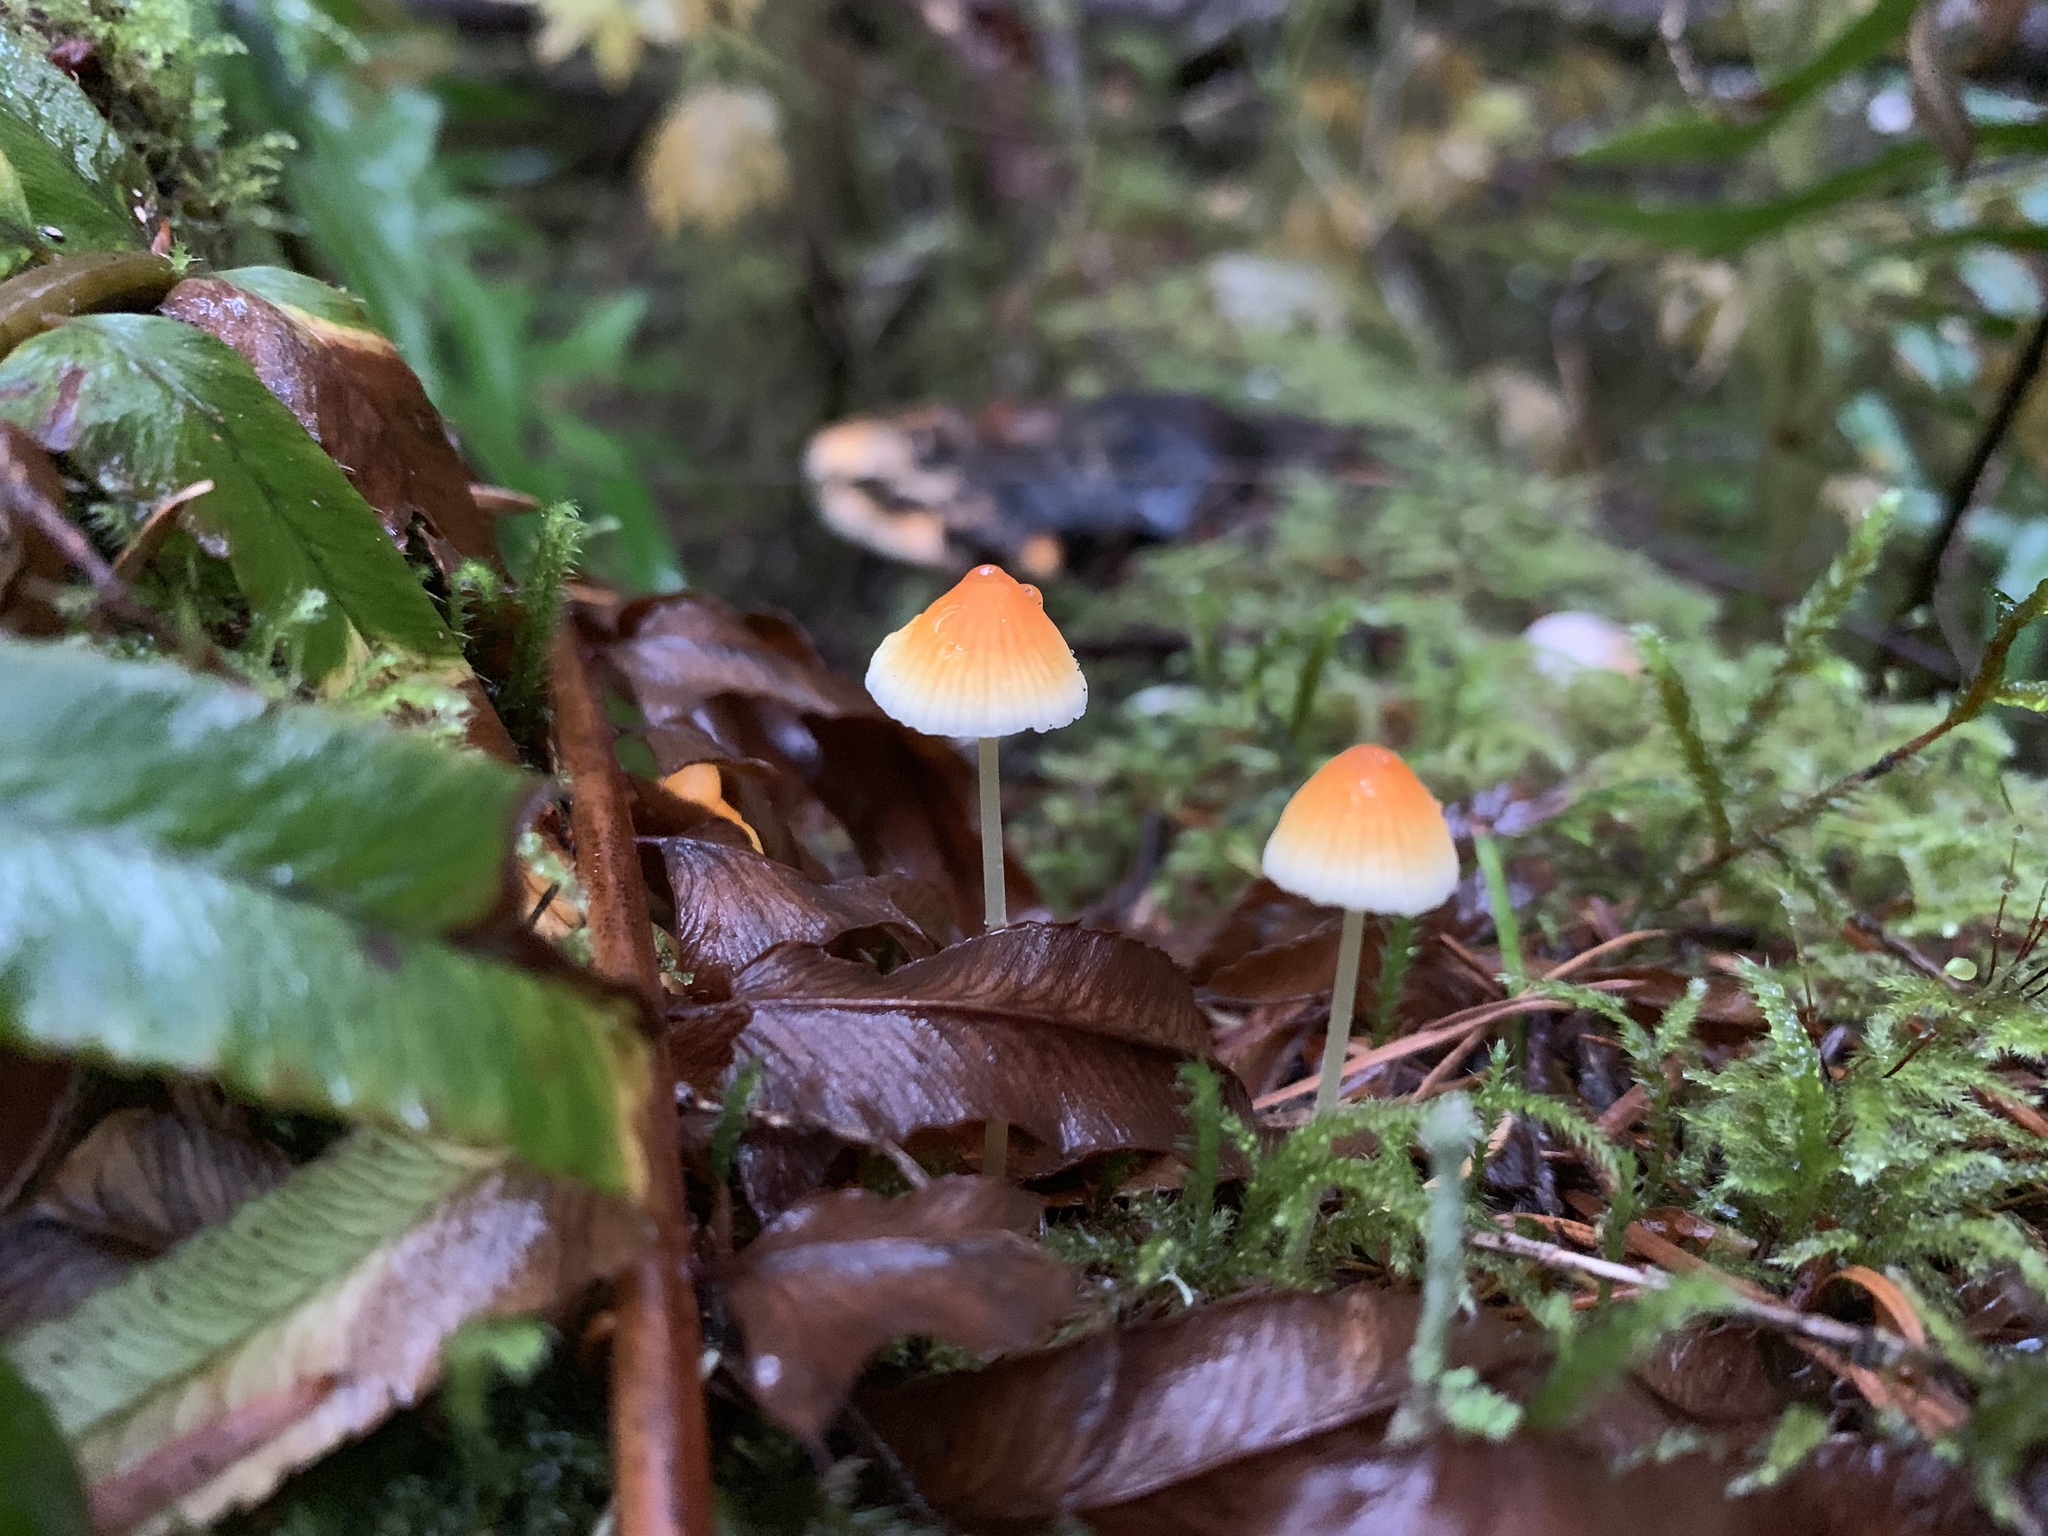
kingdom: Fungi
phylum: Basidiomycota
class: Agaricomycetes
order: Agaricales
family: Mycenaceae
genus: Atheniella
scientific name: Atheniella aurantiidisca
